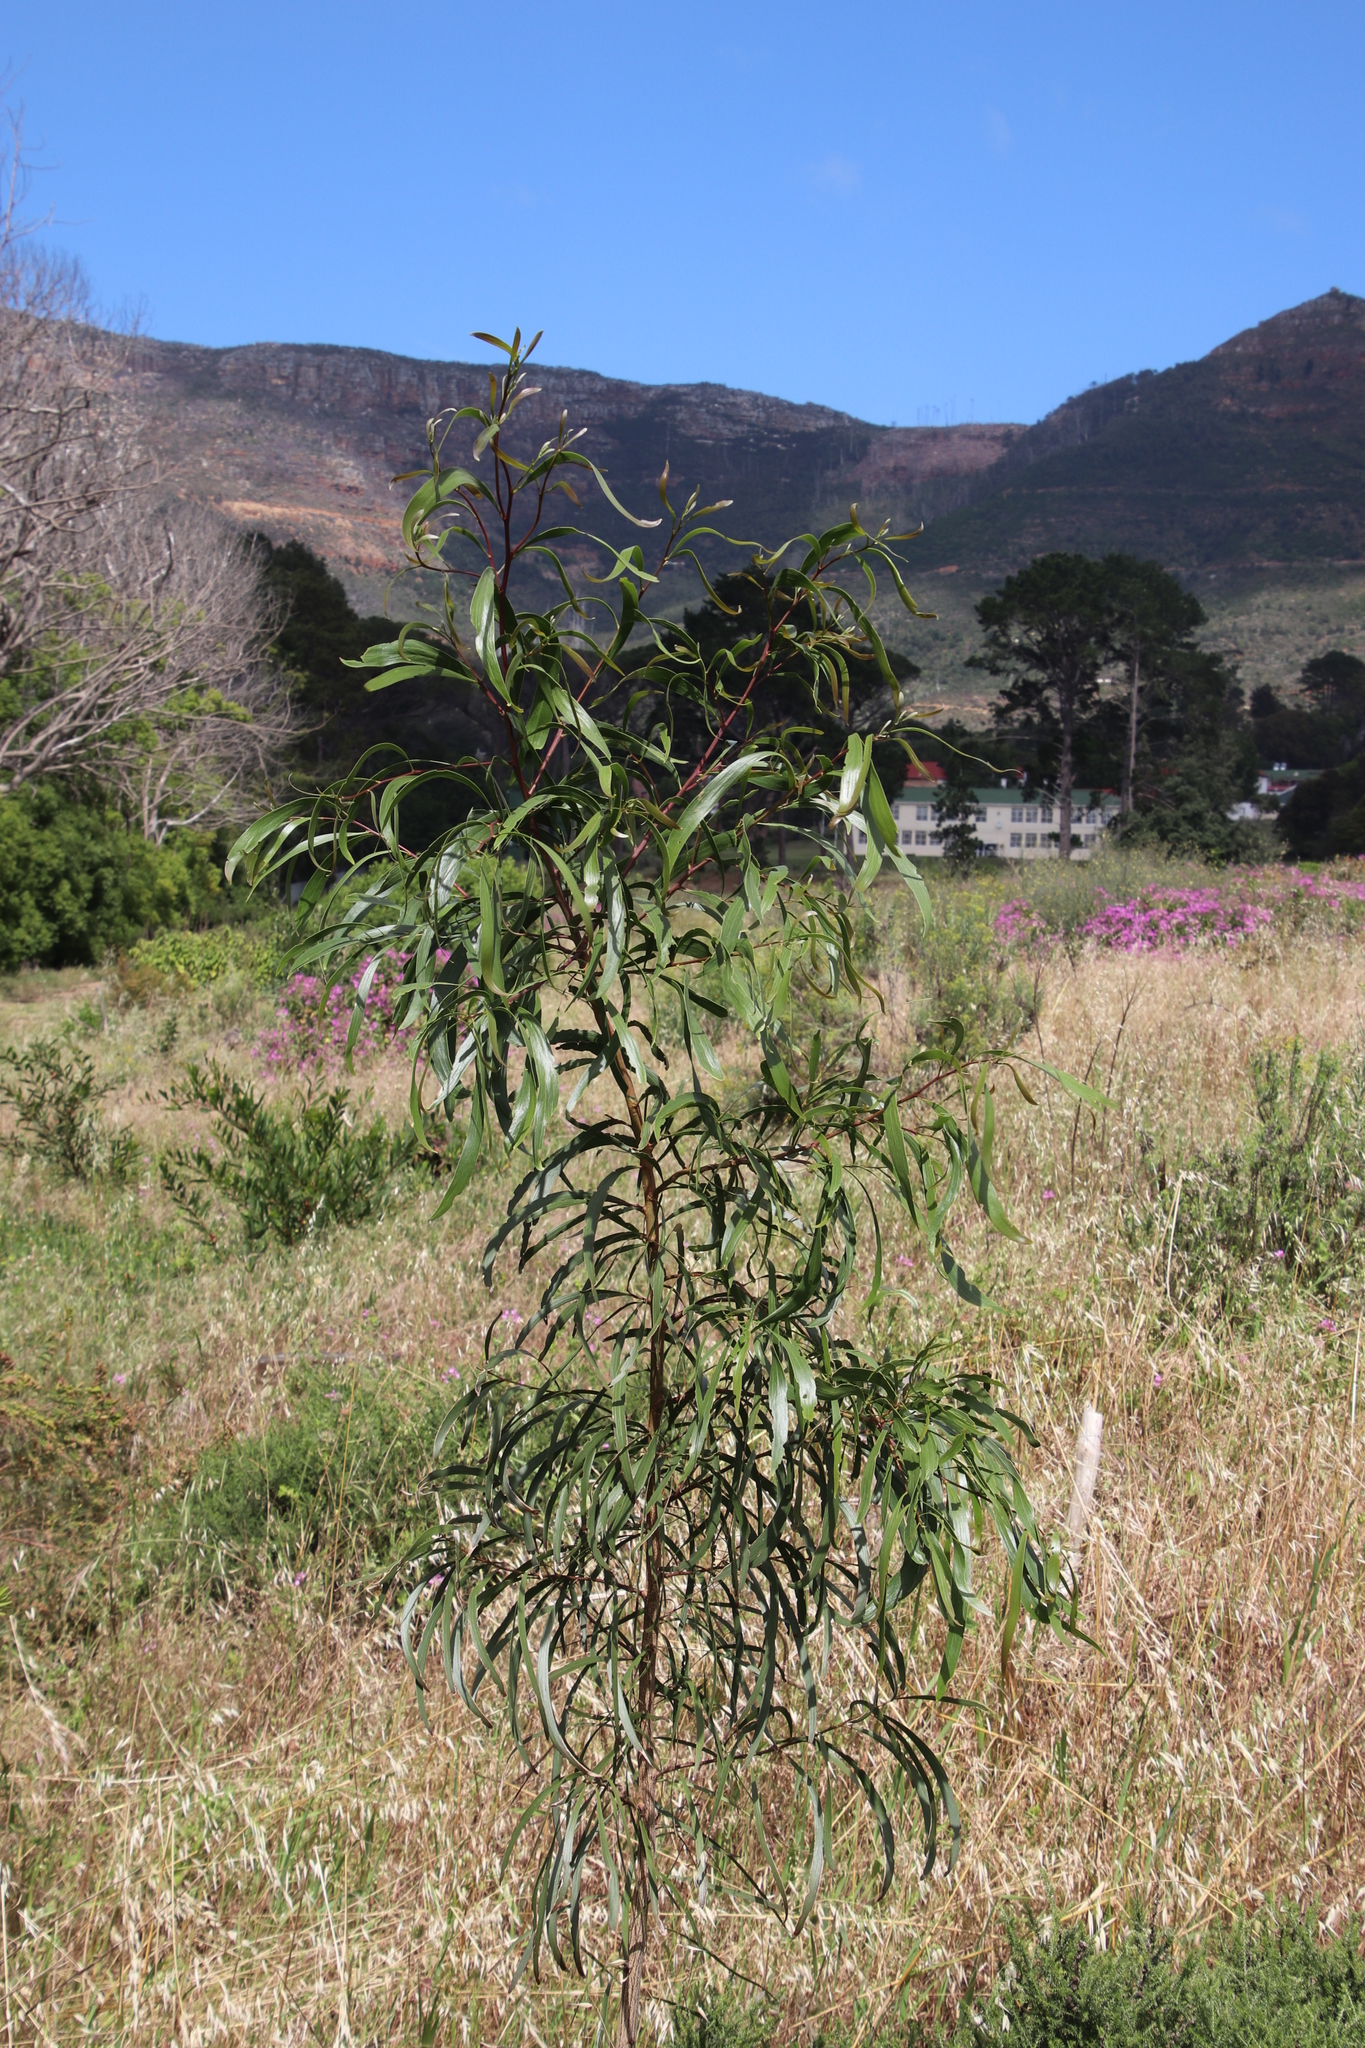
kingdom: Plantae
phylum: Tracheophyta
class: Magnoliopsida
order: Fabales
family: Fabaceae
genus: Acacia
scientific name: Acacia implexa
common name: Black wattle
